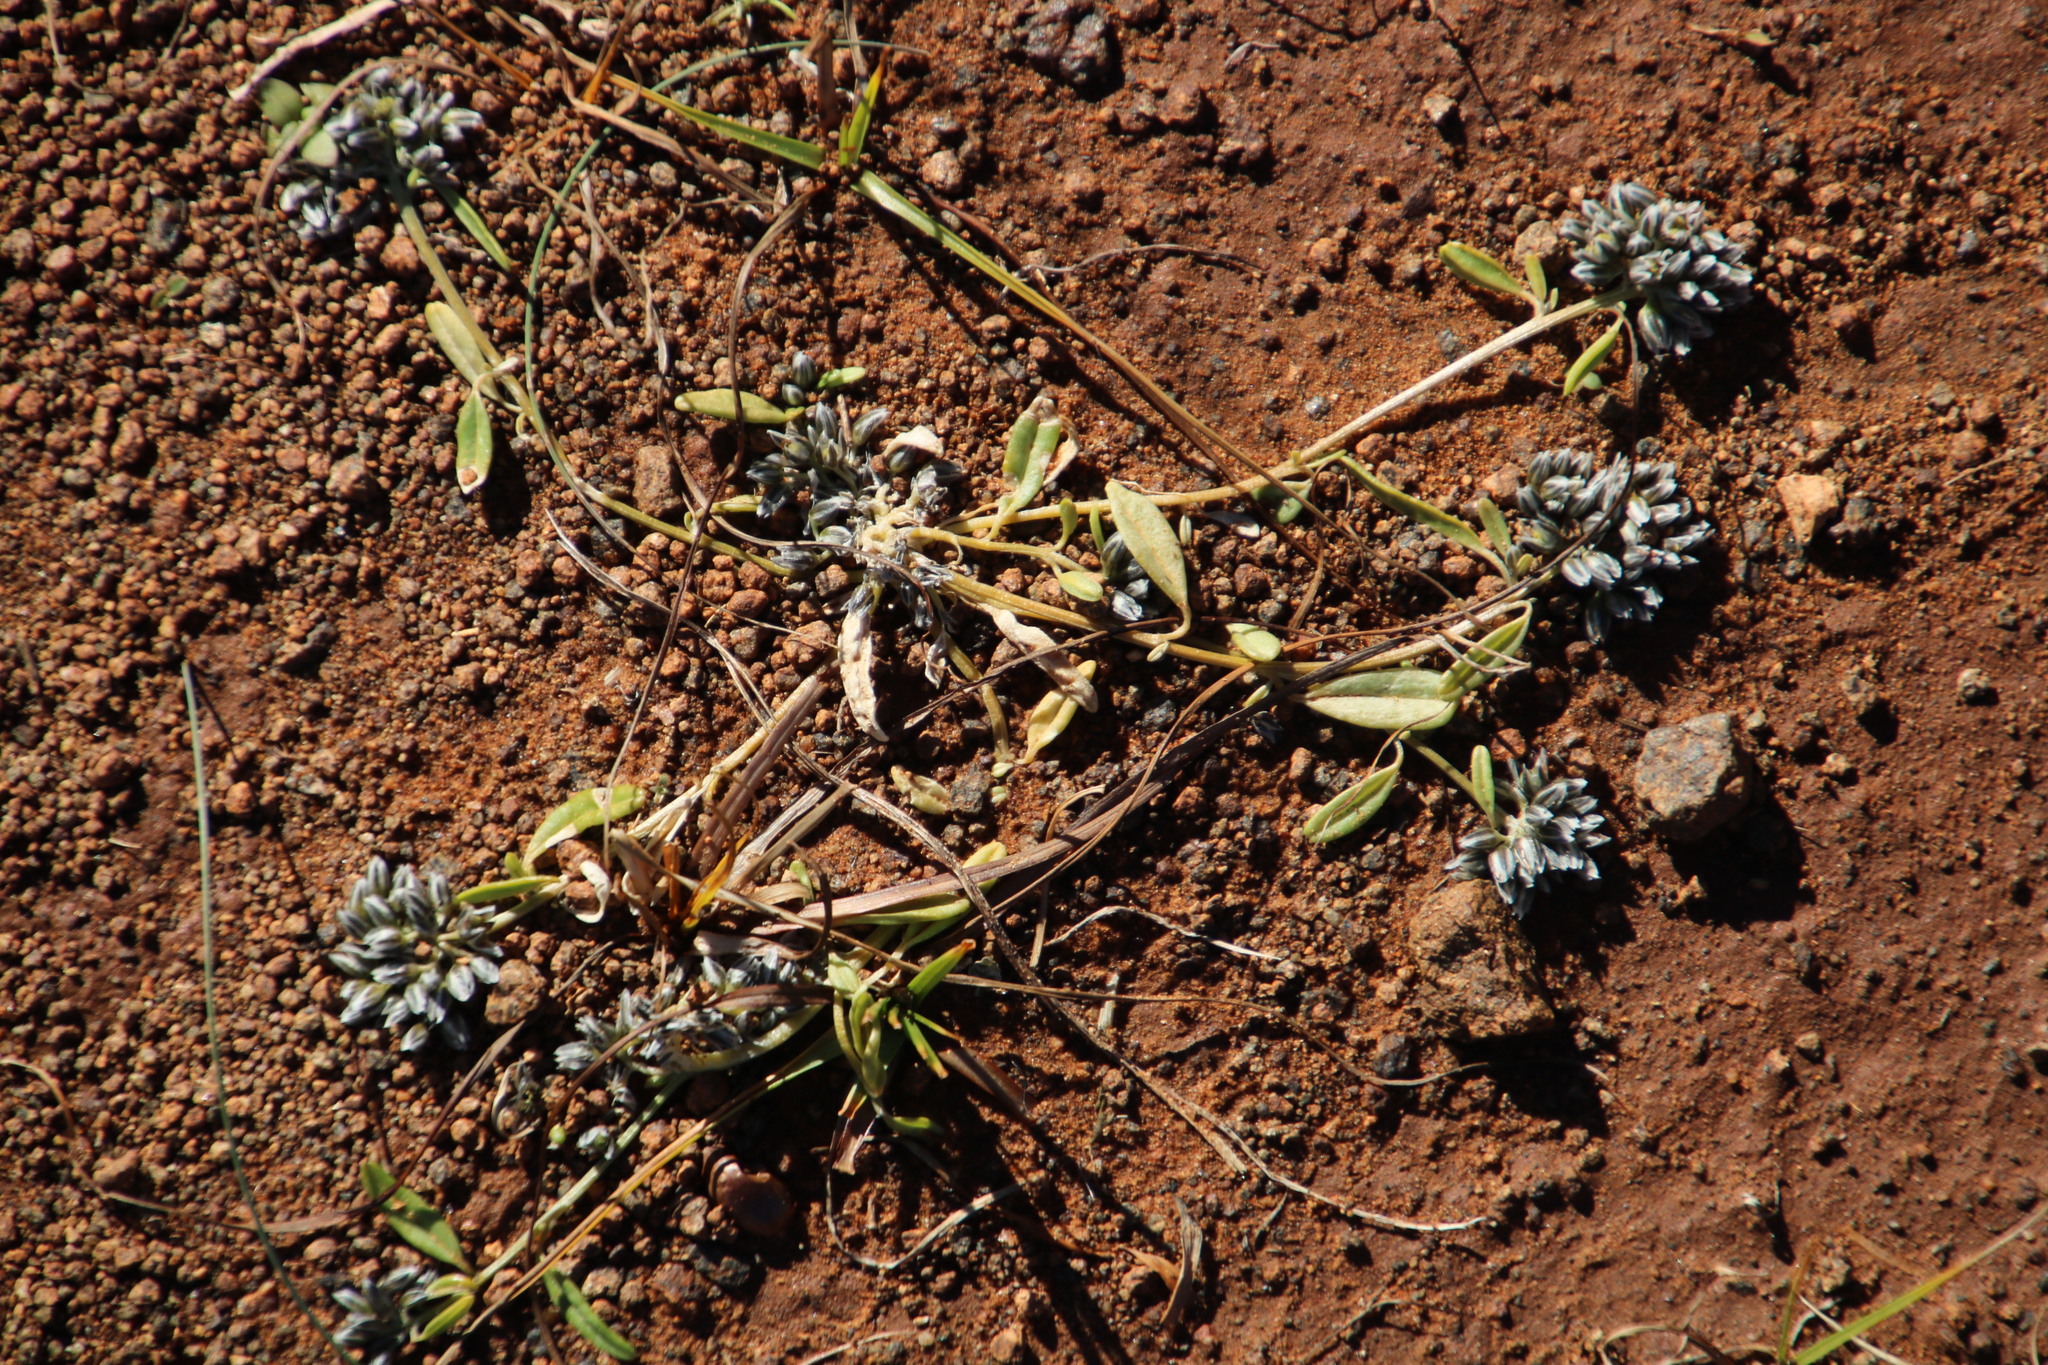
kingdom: Plantae
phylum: Tracheophyta
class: Magnoliopsida
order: Caryophyllales
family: Limeaceae
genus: Limeum
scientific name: Limeum arenicolum
